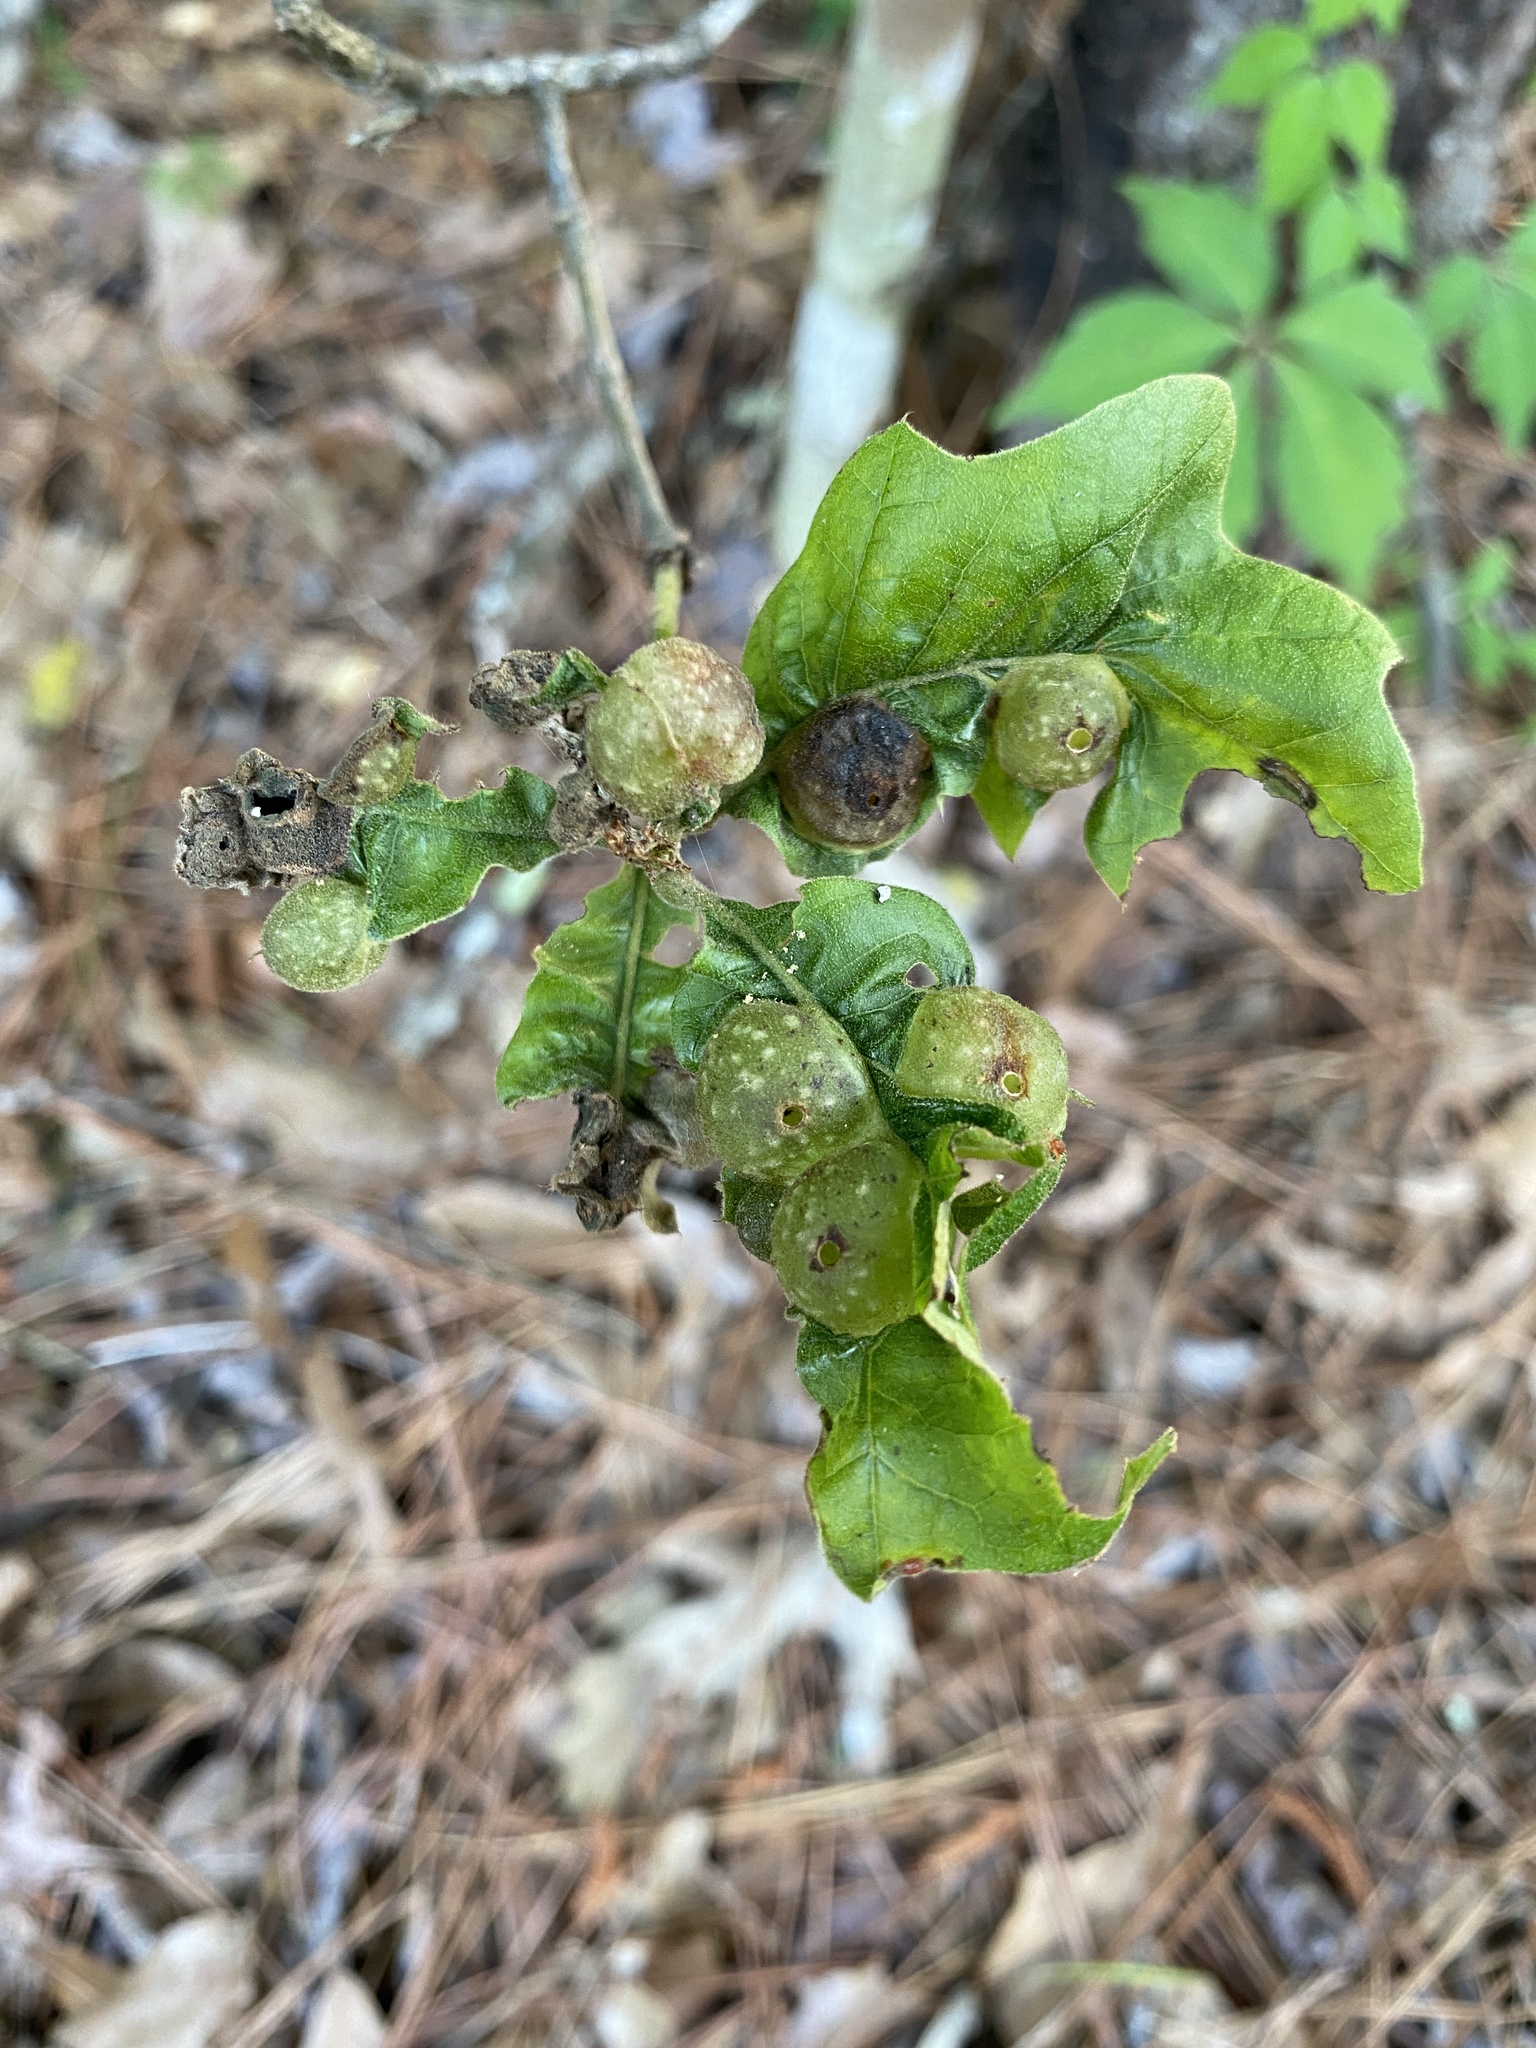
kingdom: Animalia
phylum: Arthropoda
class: Insecta
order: Hymenoptera
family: Cynipidae
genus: Dryocosmus
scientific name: Dryocosmus quercuspalustris
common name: Succulent oak gall wasp
